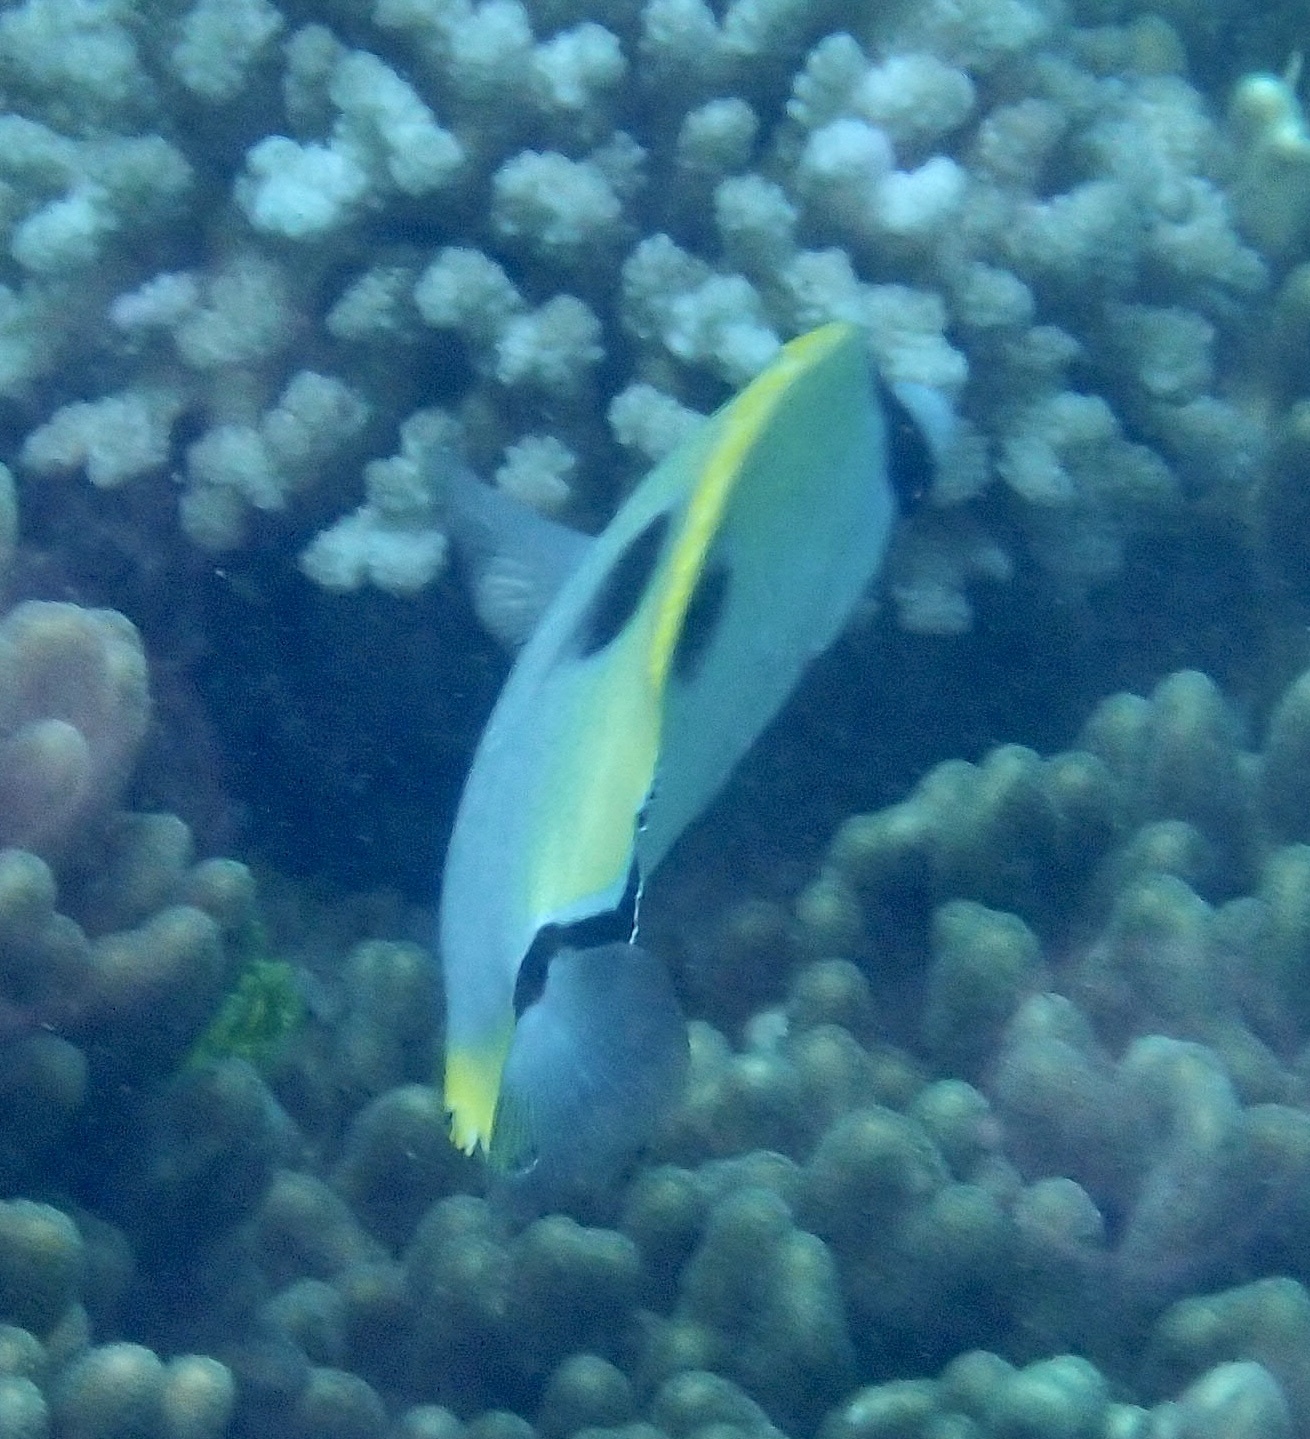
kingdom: Animalia
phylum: Chordata
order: Perciformes
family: Chaetodontidae
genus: Chaetodon
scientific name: Chaetodon unimaculatus
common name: Teardrop butterflyfish
